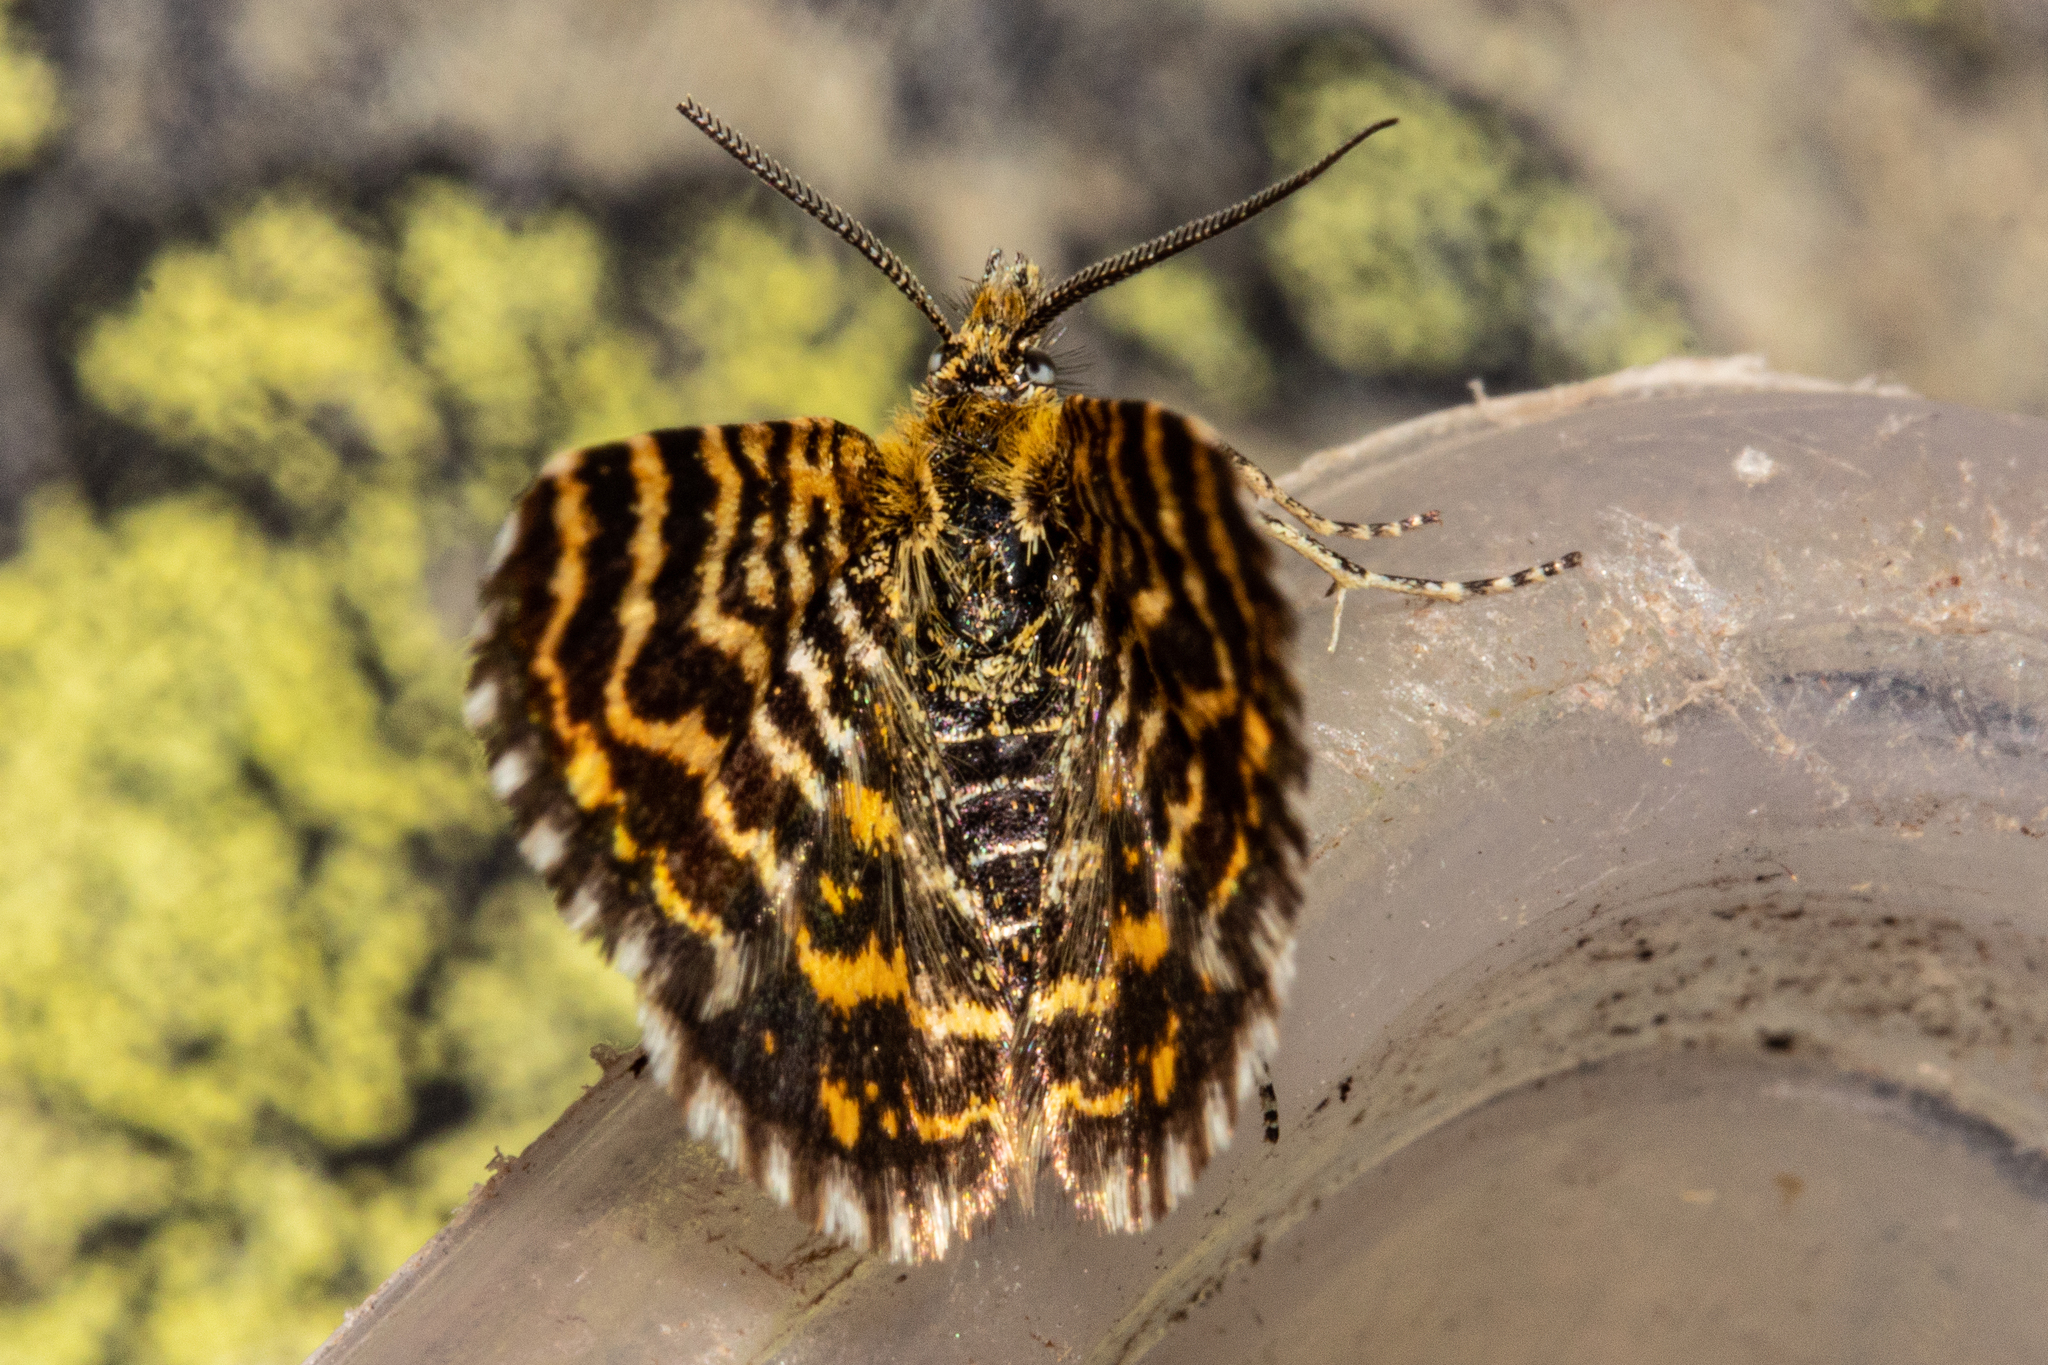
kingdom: Animalia
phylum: Arthropoda
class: Insecta
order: Lepidoptera
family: Geometridae
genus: Notoreas
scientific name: Notoreas galaxias
